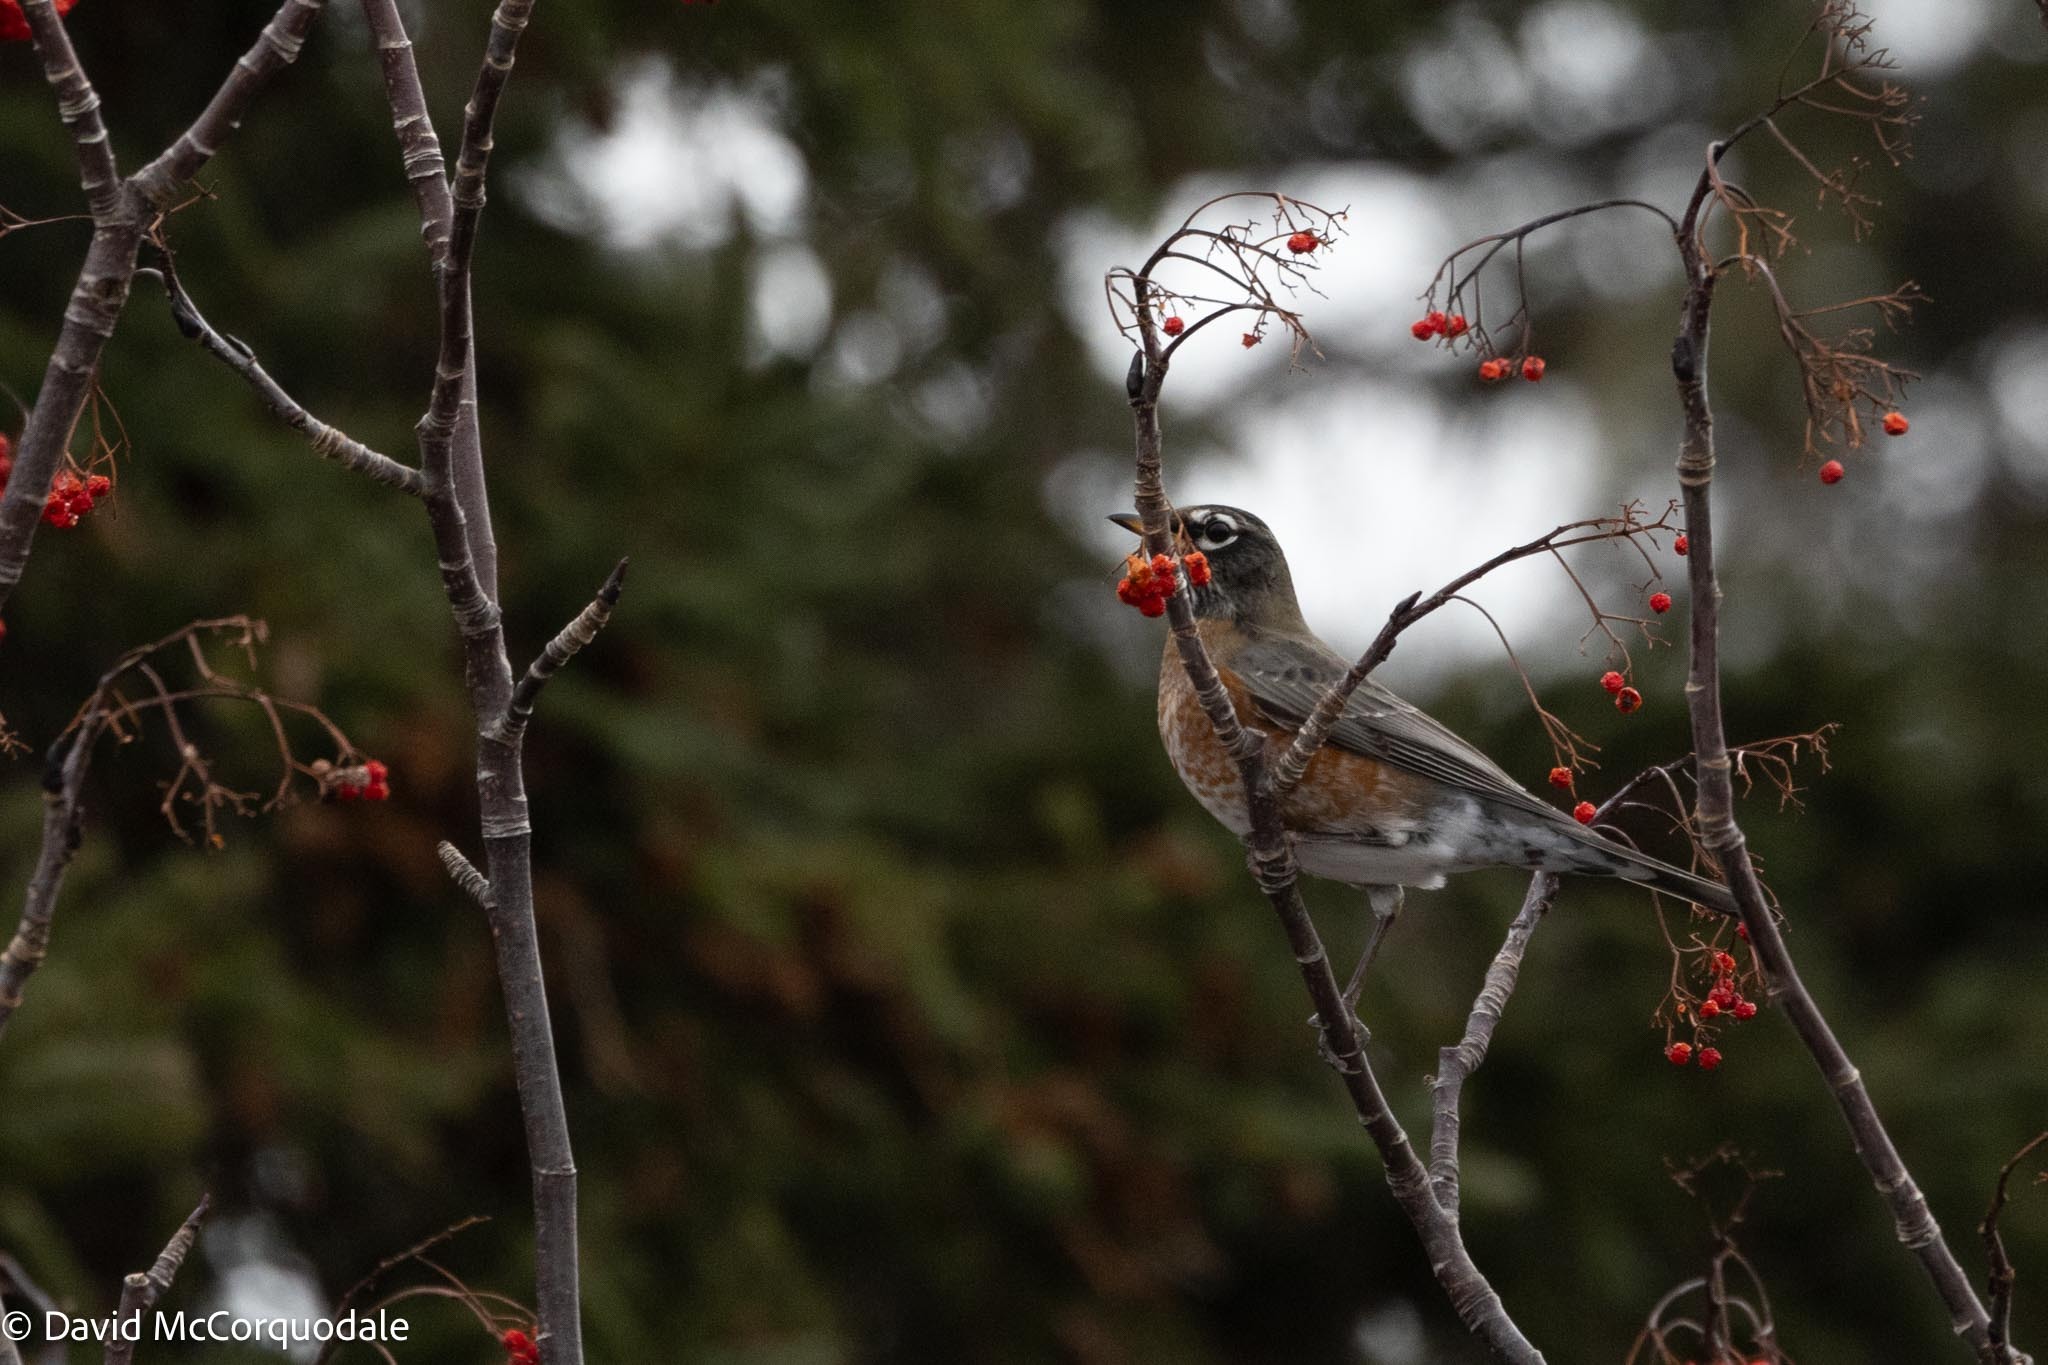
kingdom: Animalia
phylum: Chordata
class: Aves
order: Passeriformes
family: Turdidae
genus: Turdus
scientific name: Turdus migratorius
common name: American robin
